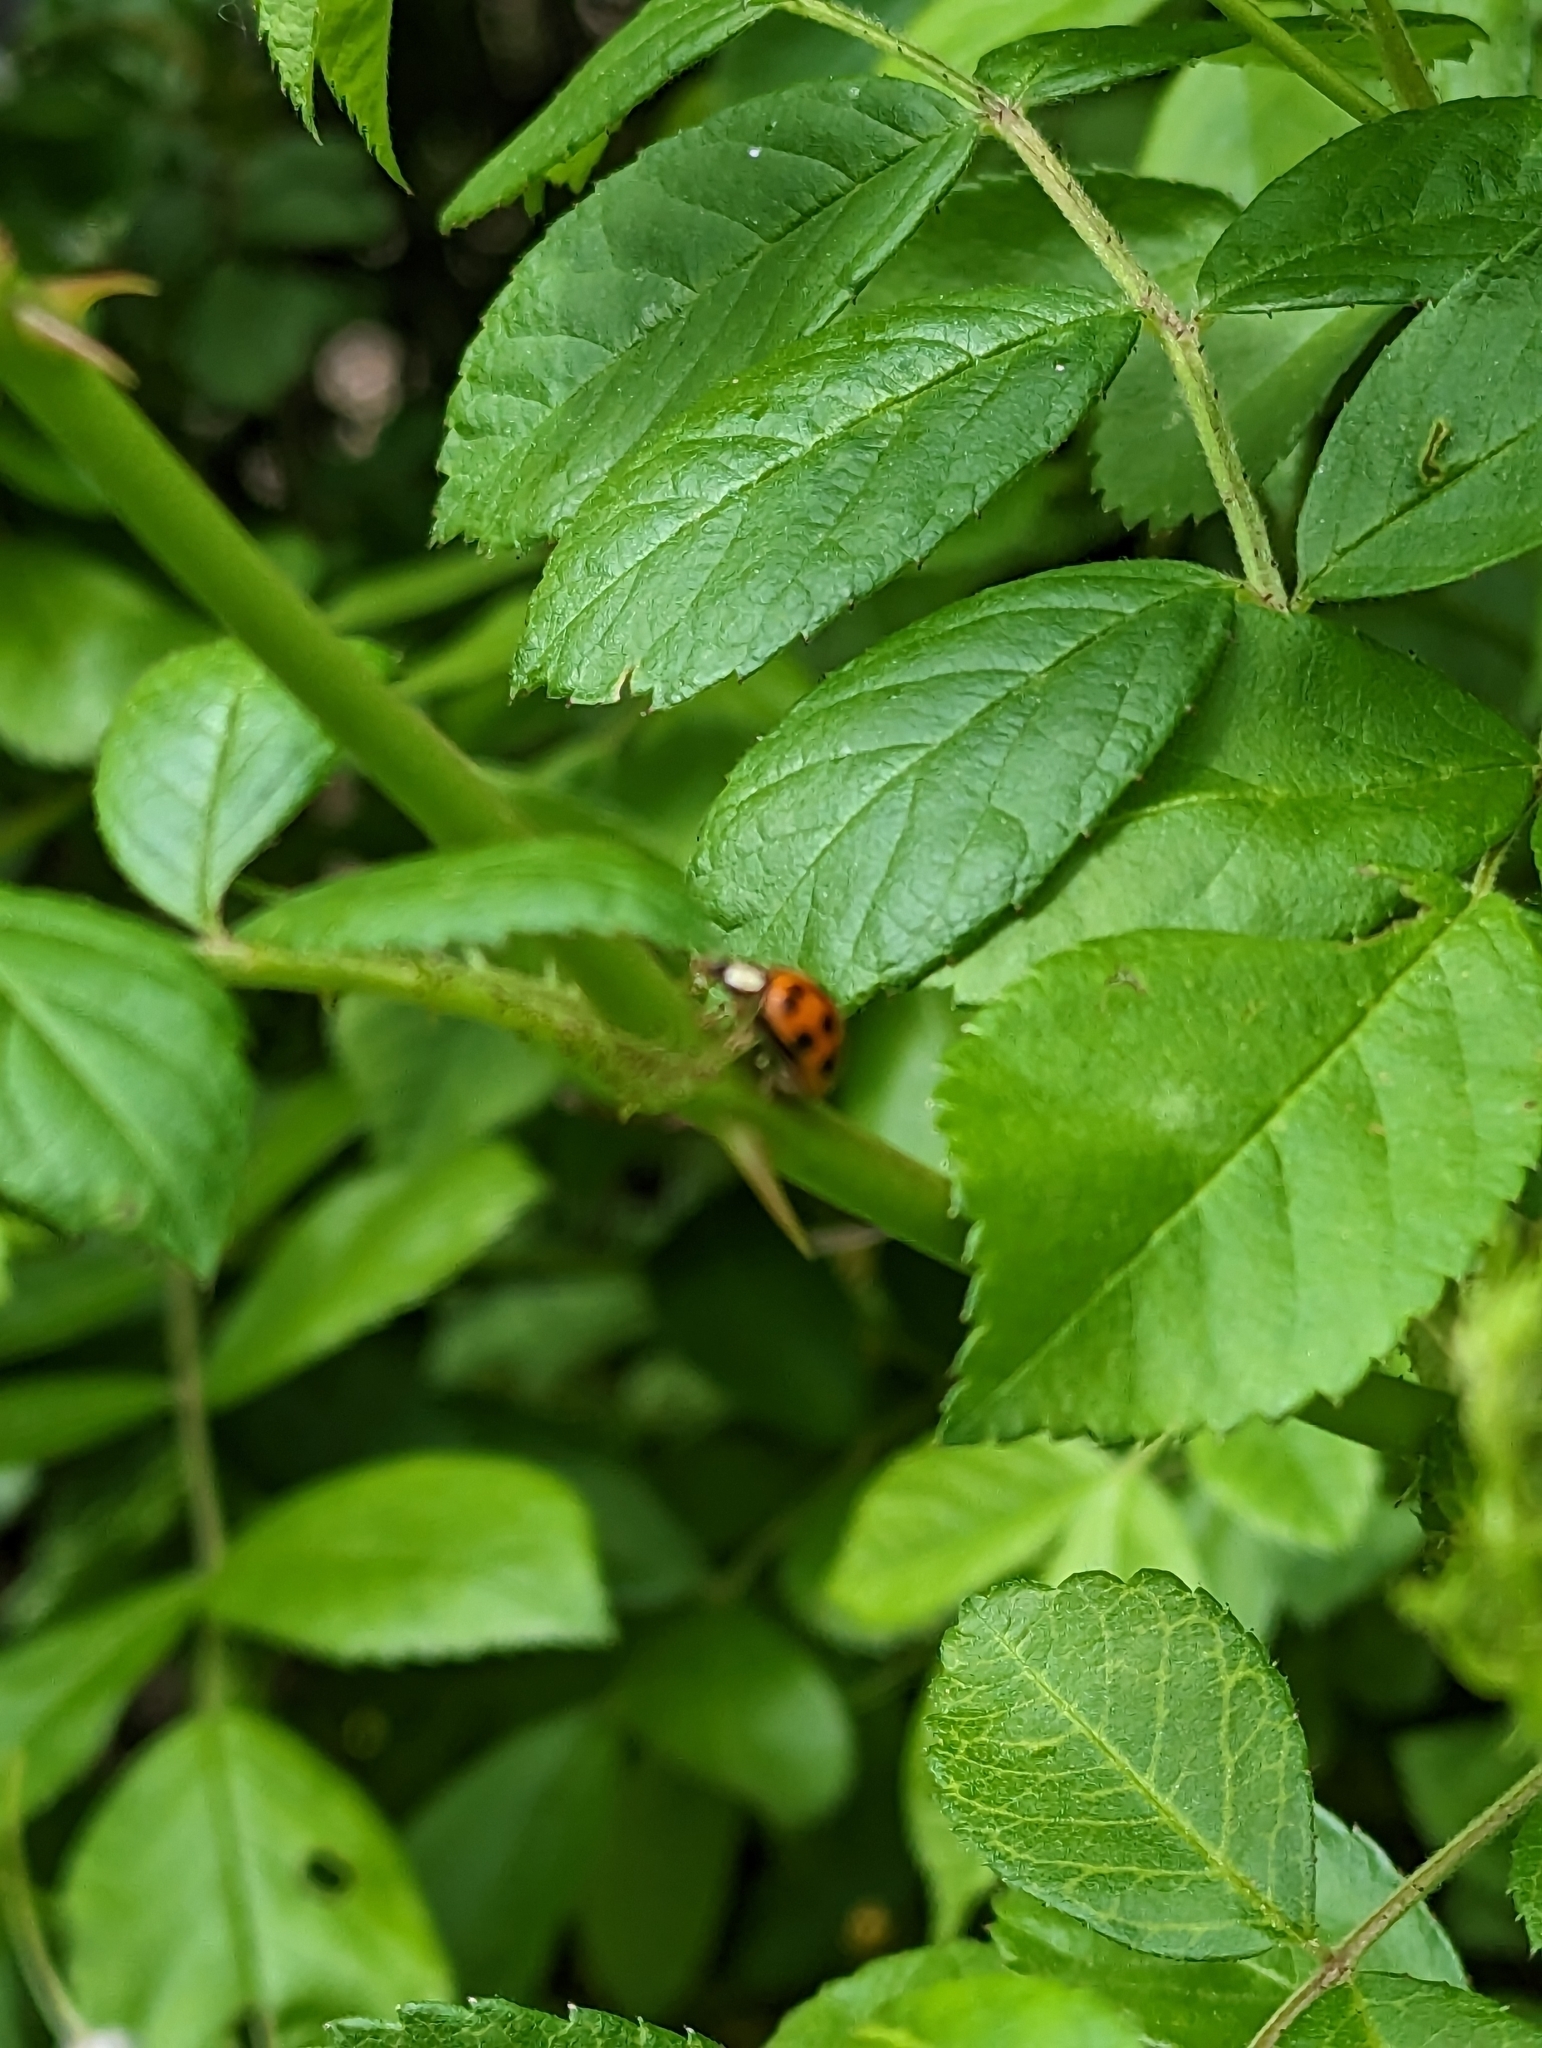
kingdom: Animalia
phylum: Arthropoda
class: Insecta
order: Coleoptera
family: Coccinellidae
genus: Harmonia
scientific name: Harmonia axyridis
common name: Harlequin ladybird
